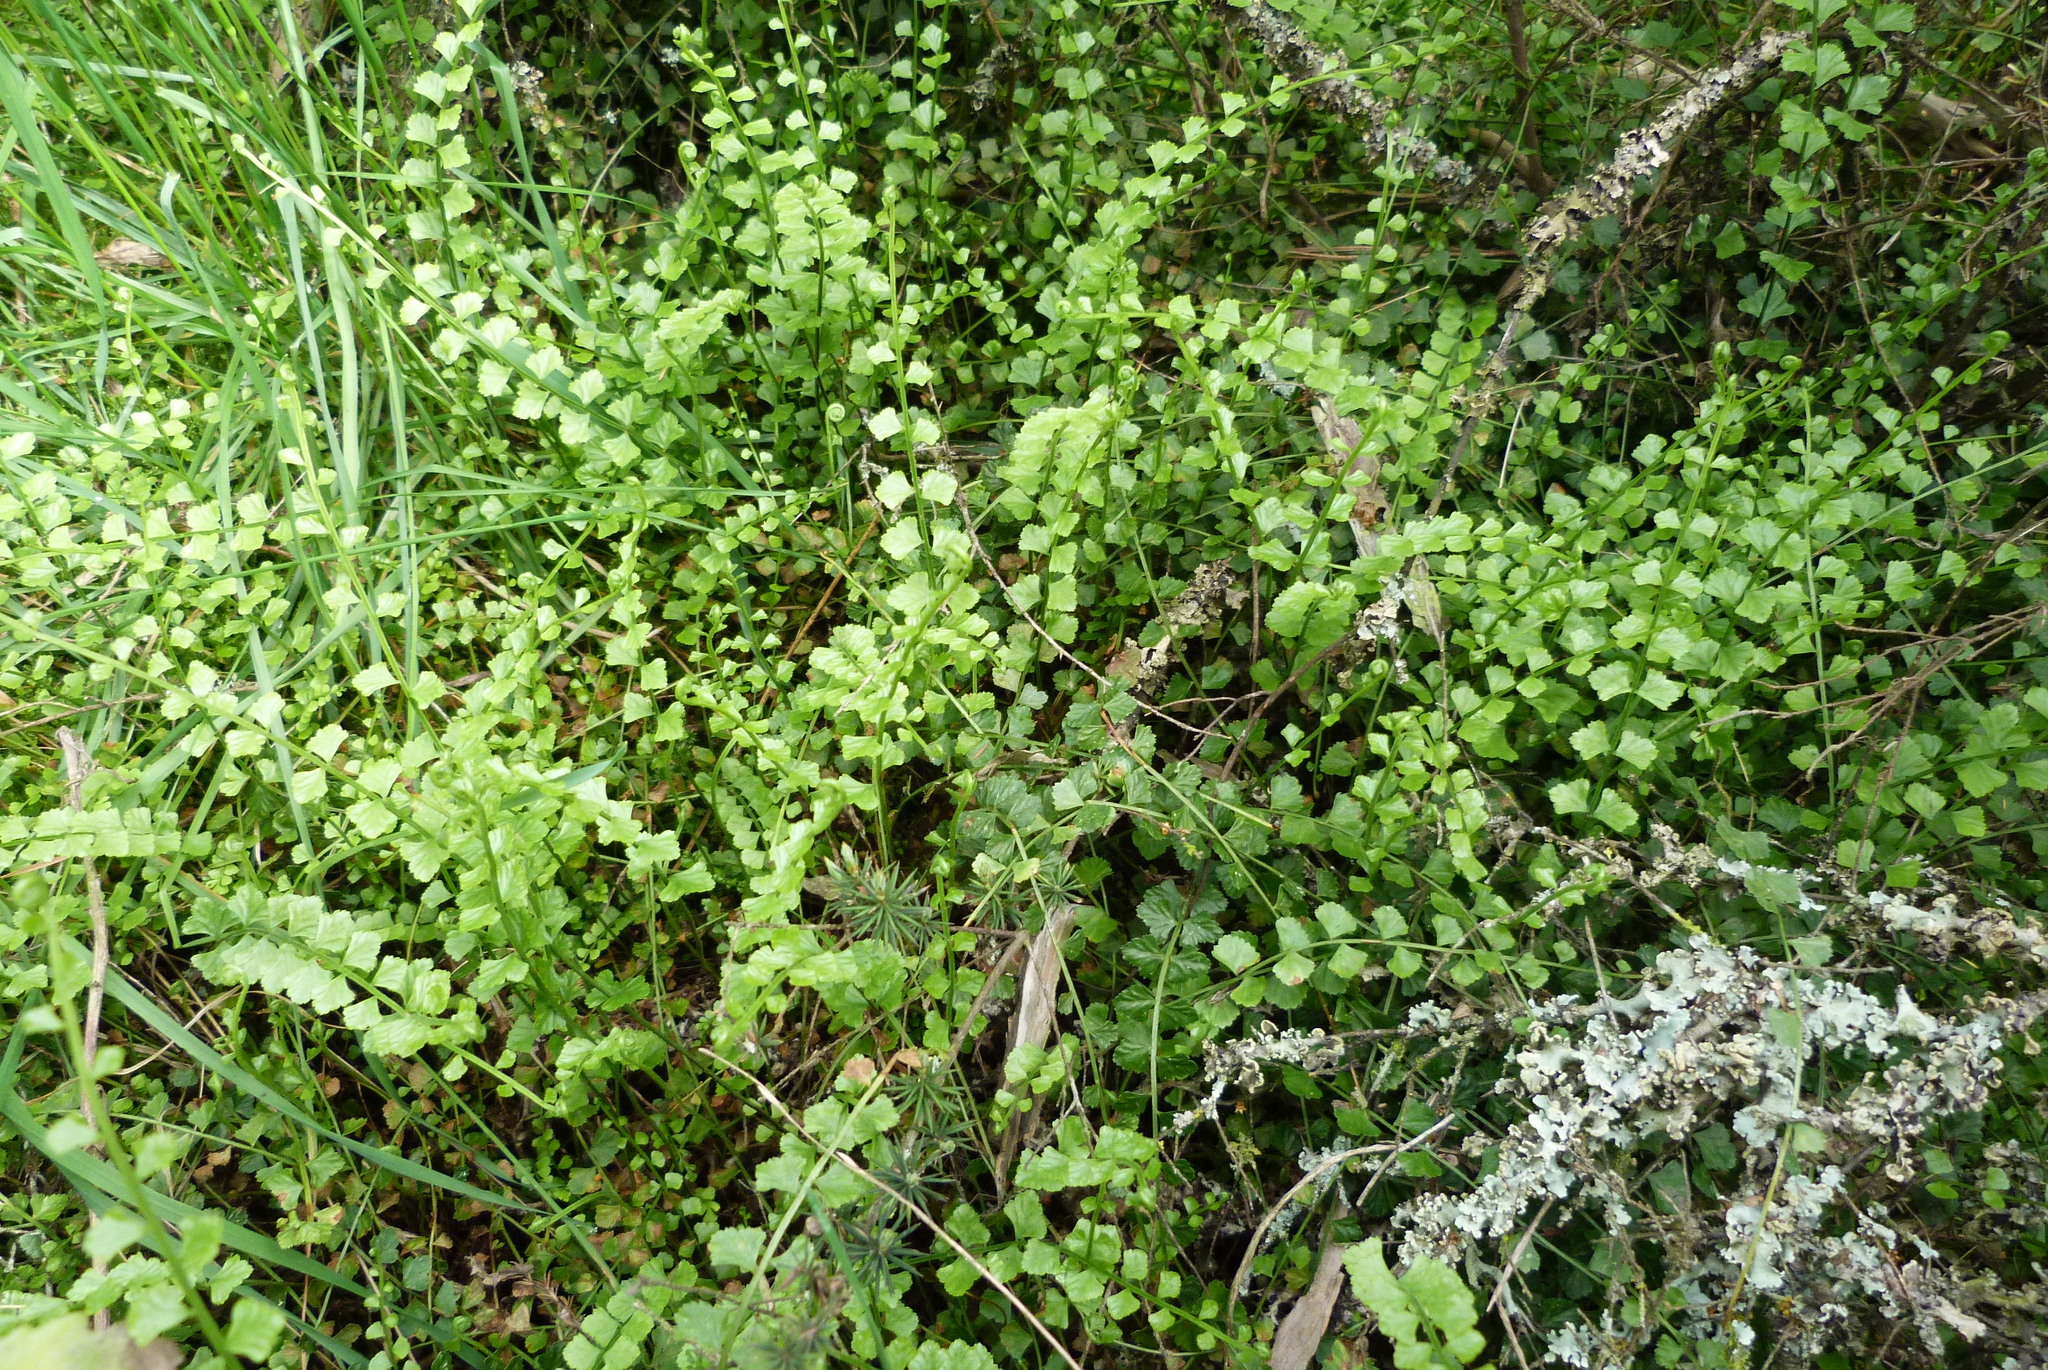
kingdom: Plantae
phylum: Tracheophyta
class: Polypodiopsida
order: Polypodiales
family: Aspleniaceae
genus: Asplenium
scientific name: Asplenium flabellifolium
